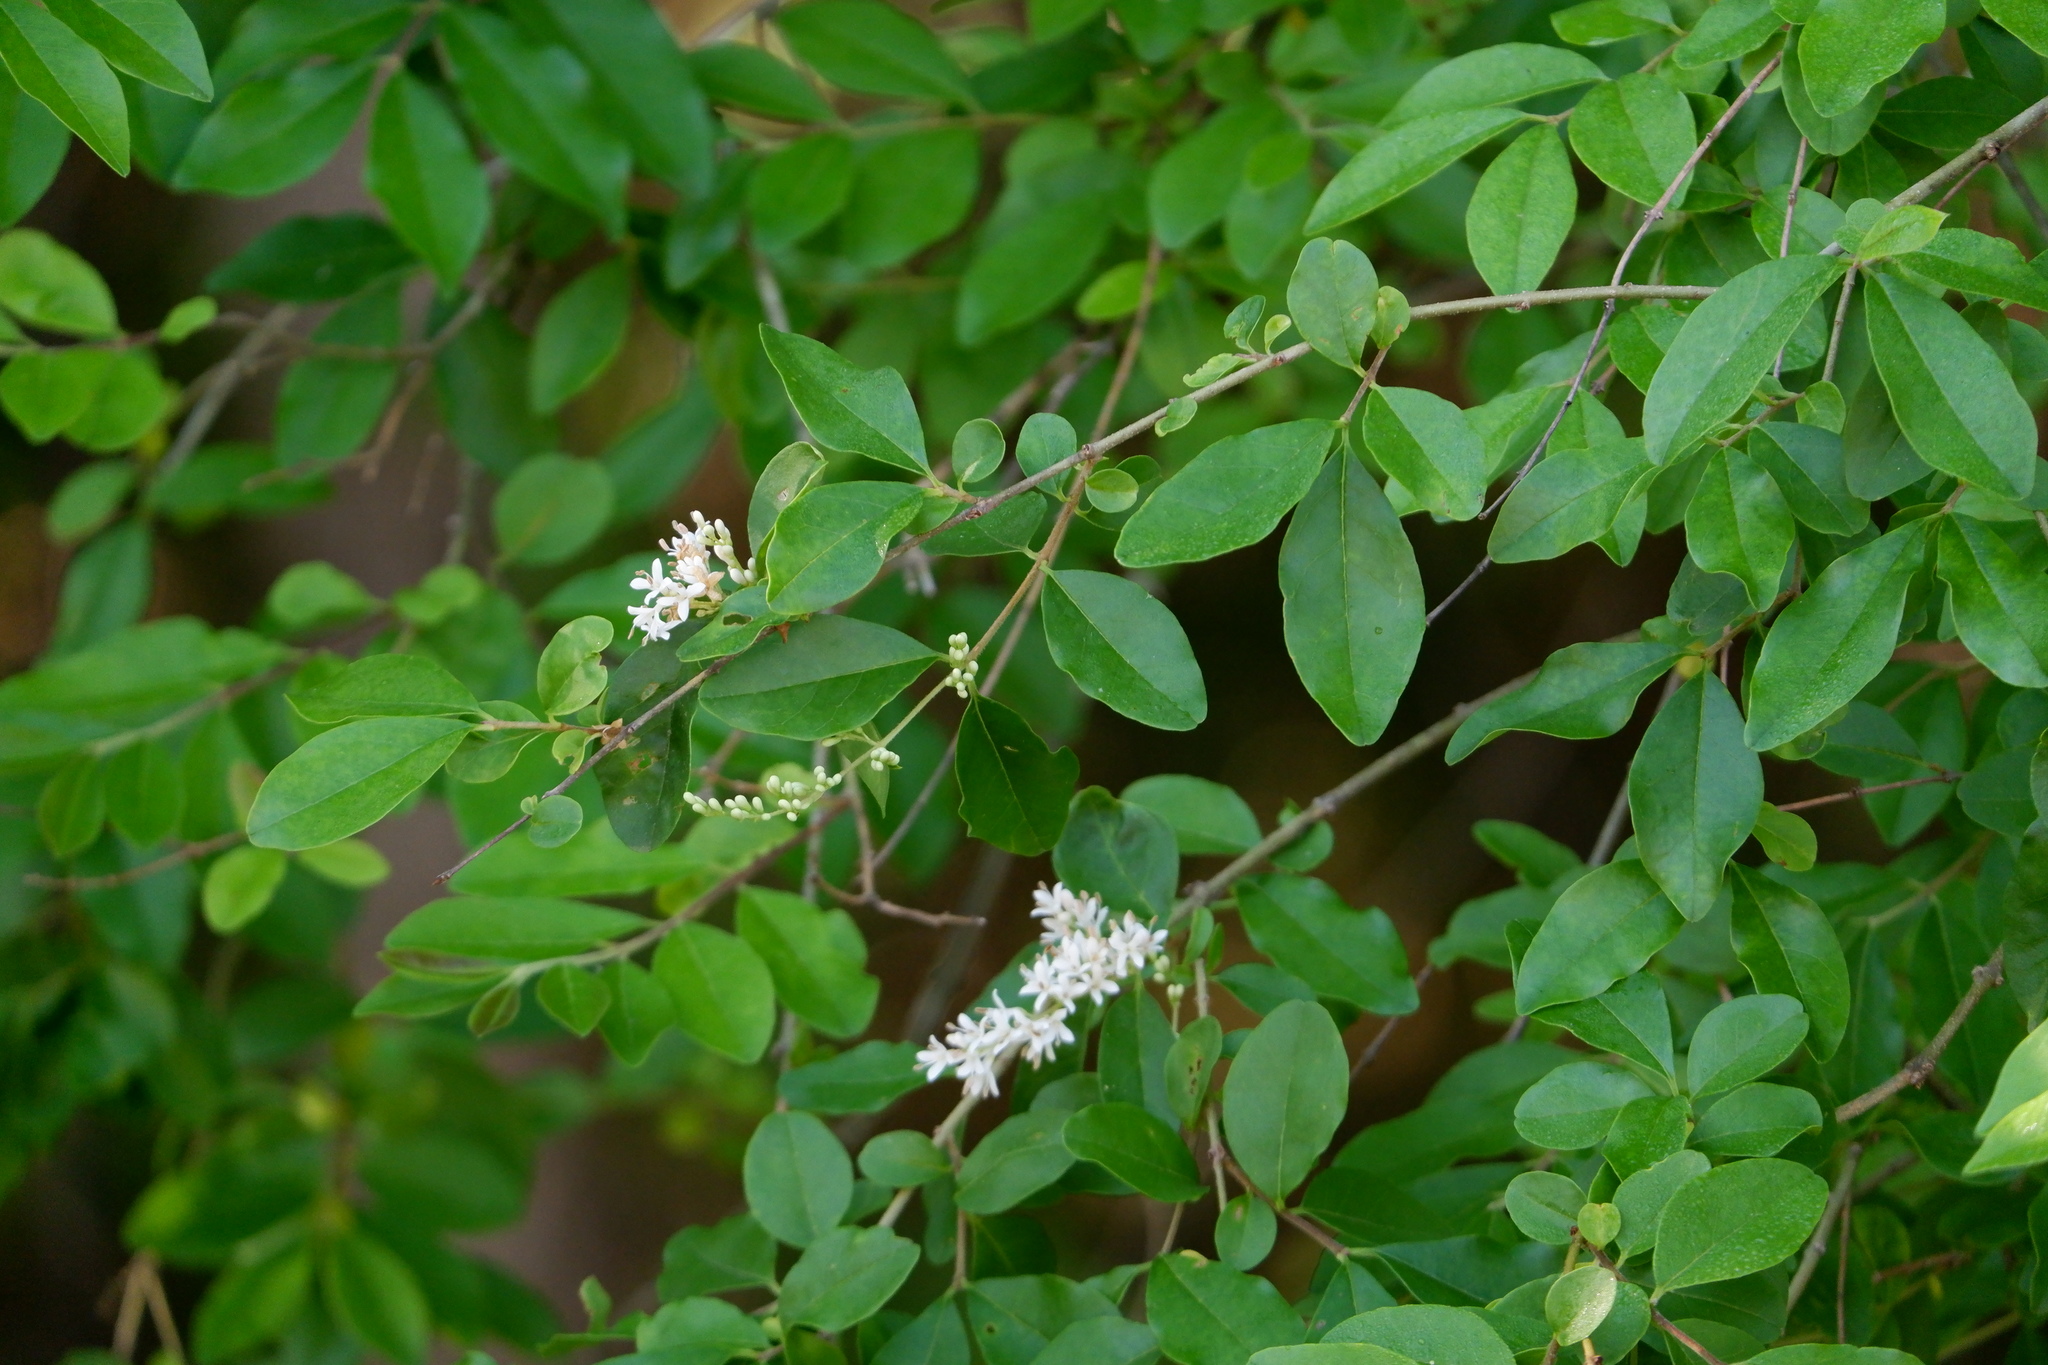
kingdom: Plantae
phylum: Tracheophyta
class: Magnoliopsida
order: Lamiales
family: Oleaceae
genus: Ligustrum
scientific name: Ligustrum sinense
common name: Chinese privet
